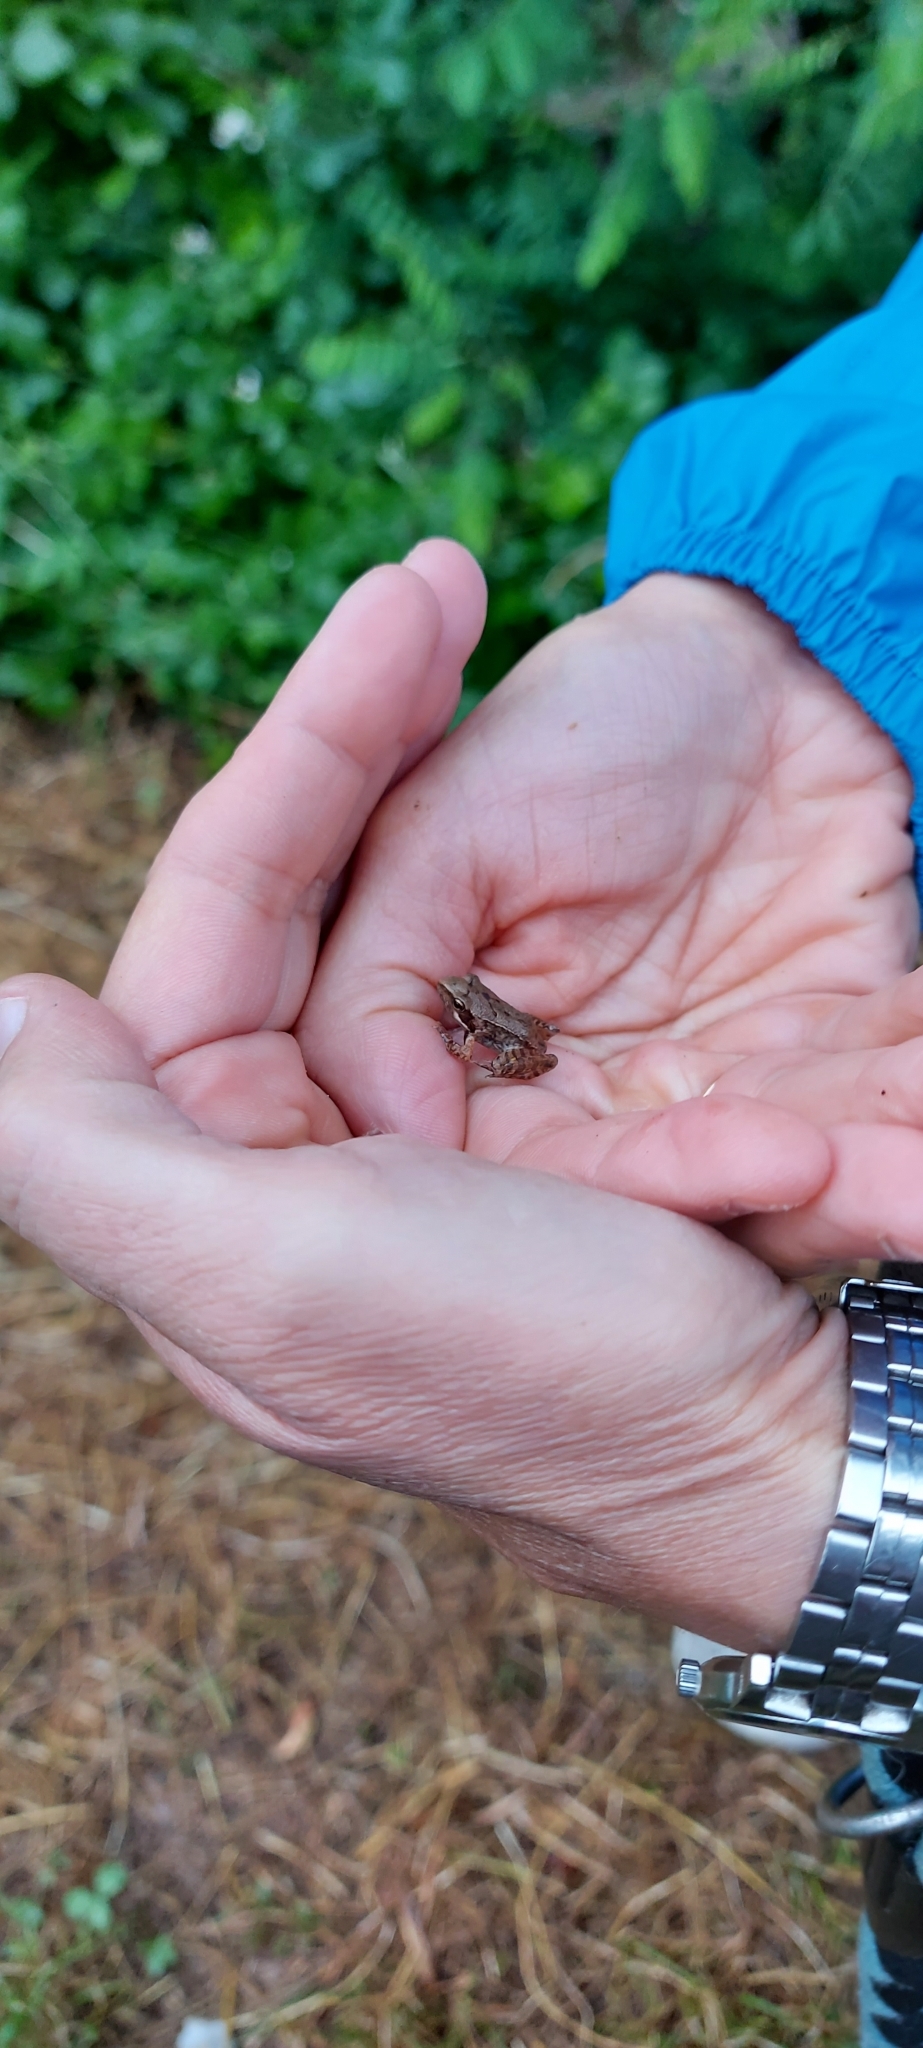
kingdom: Animalia
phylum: Chordata
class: Amphibia
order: Anura
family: Ranidae
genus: Rana
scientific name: Rana latastei
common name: Italian agile frog
